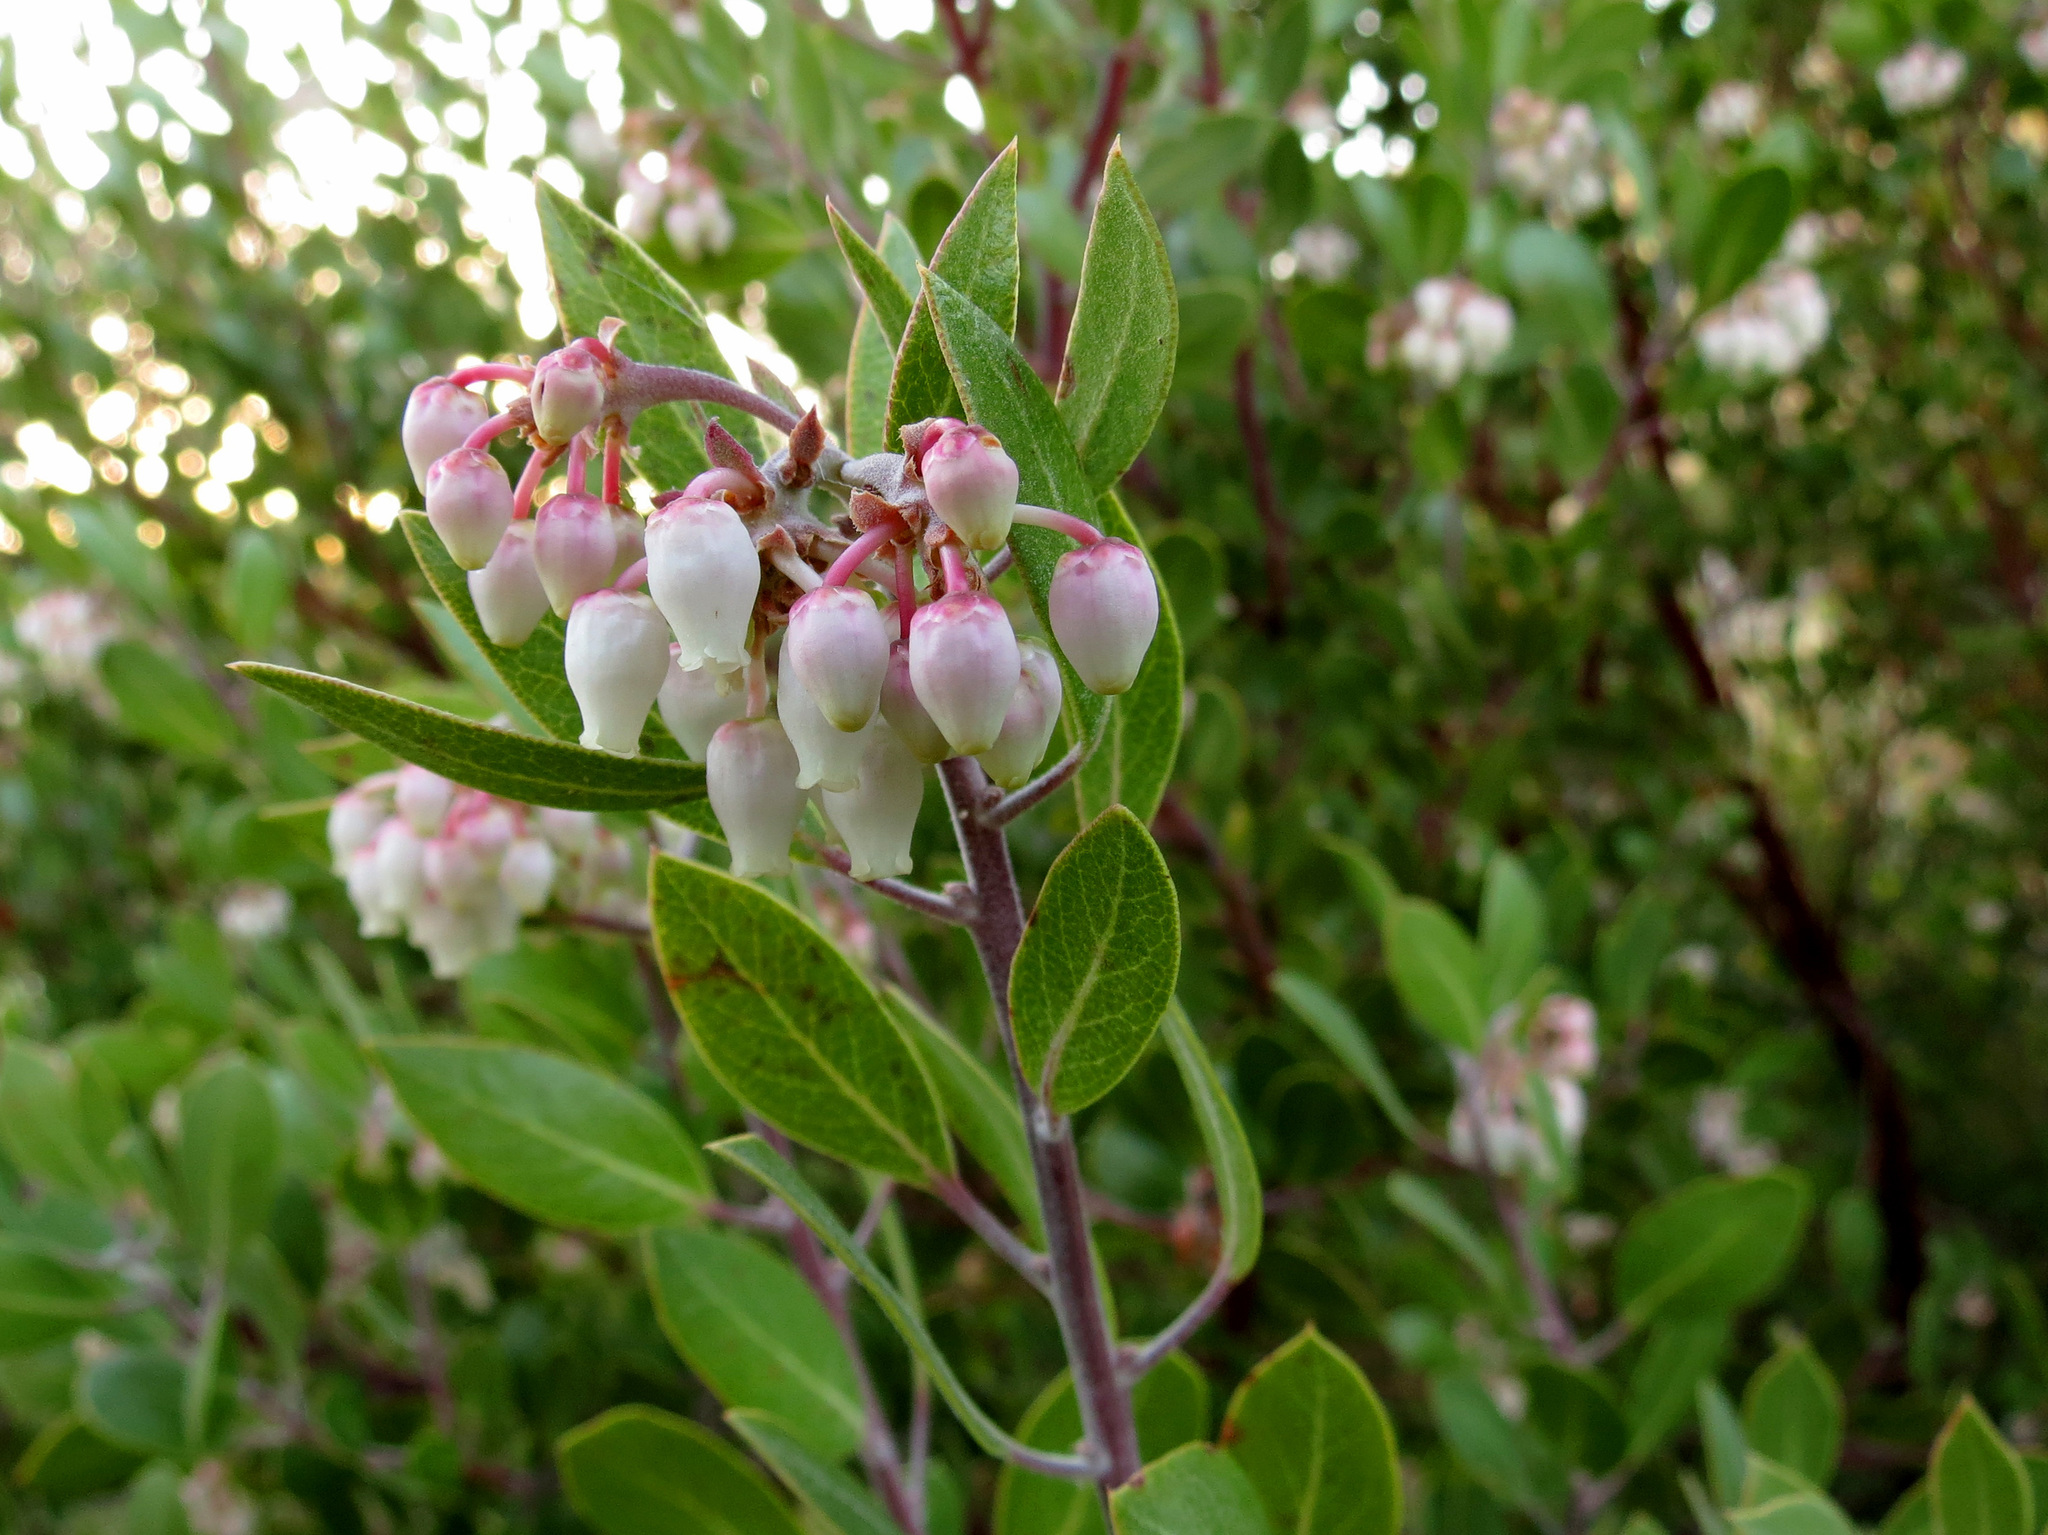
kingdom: Plantae
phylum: Tracheophyta
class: Magnoliopsida
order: Ericales
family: Ericaceae
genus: Arctostaphylos
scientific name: Arctostaphylos pungens
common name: Mexican manzanita
